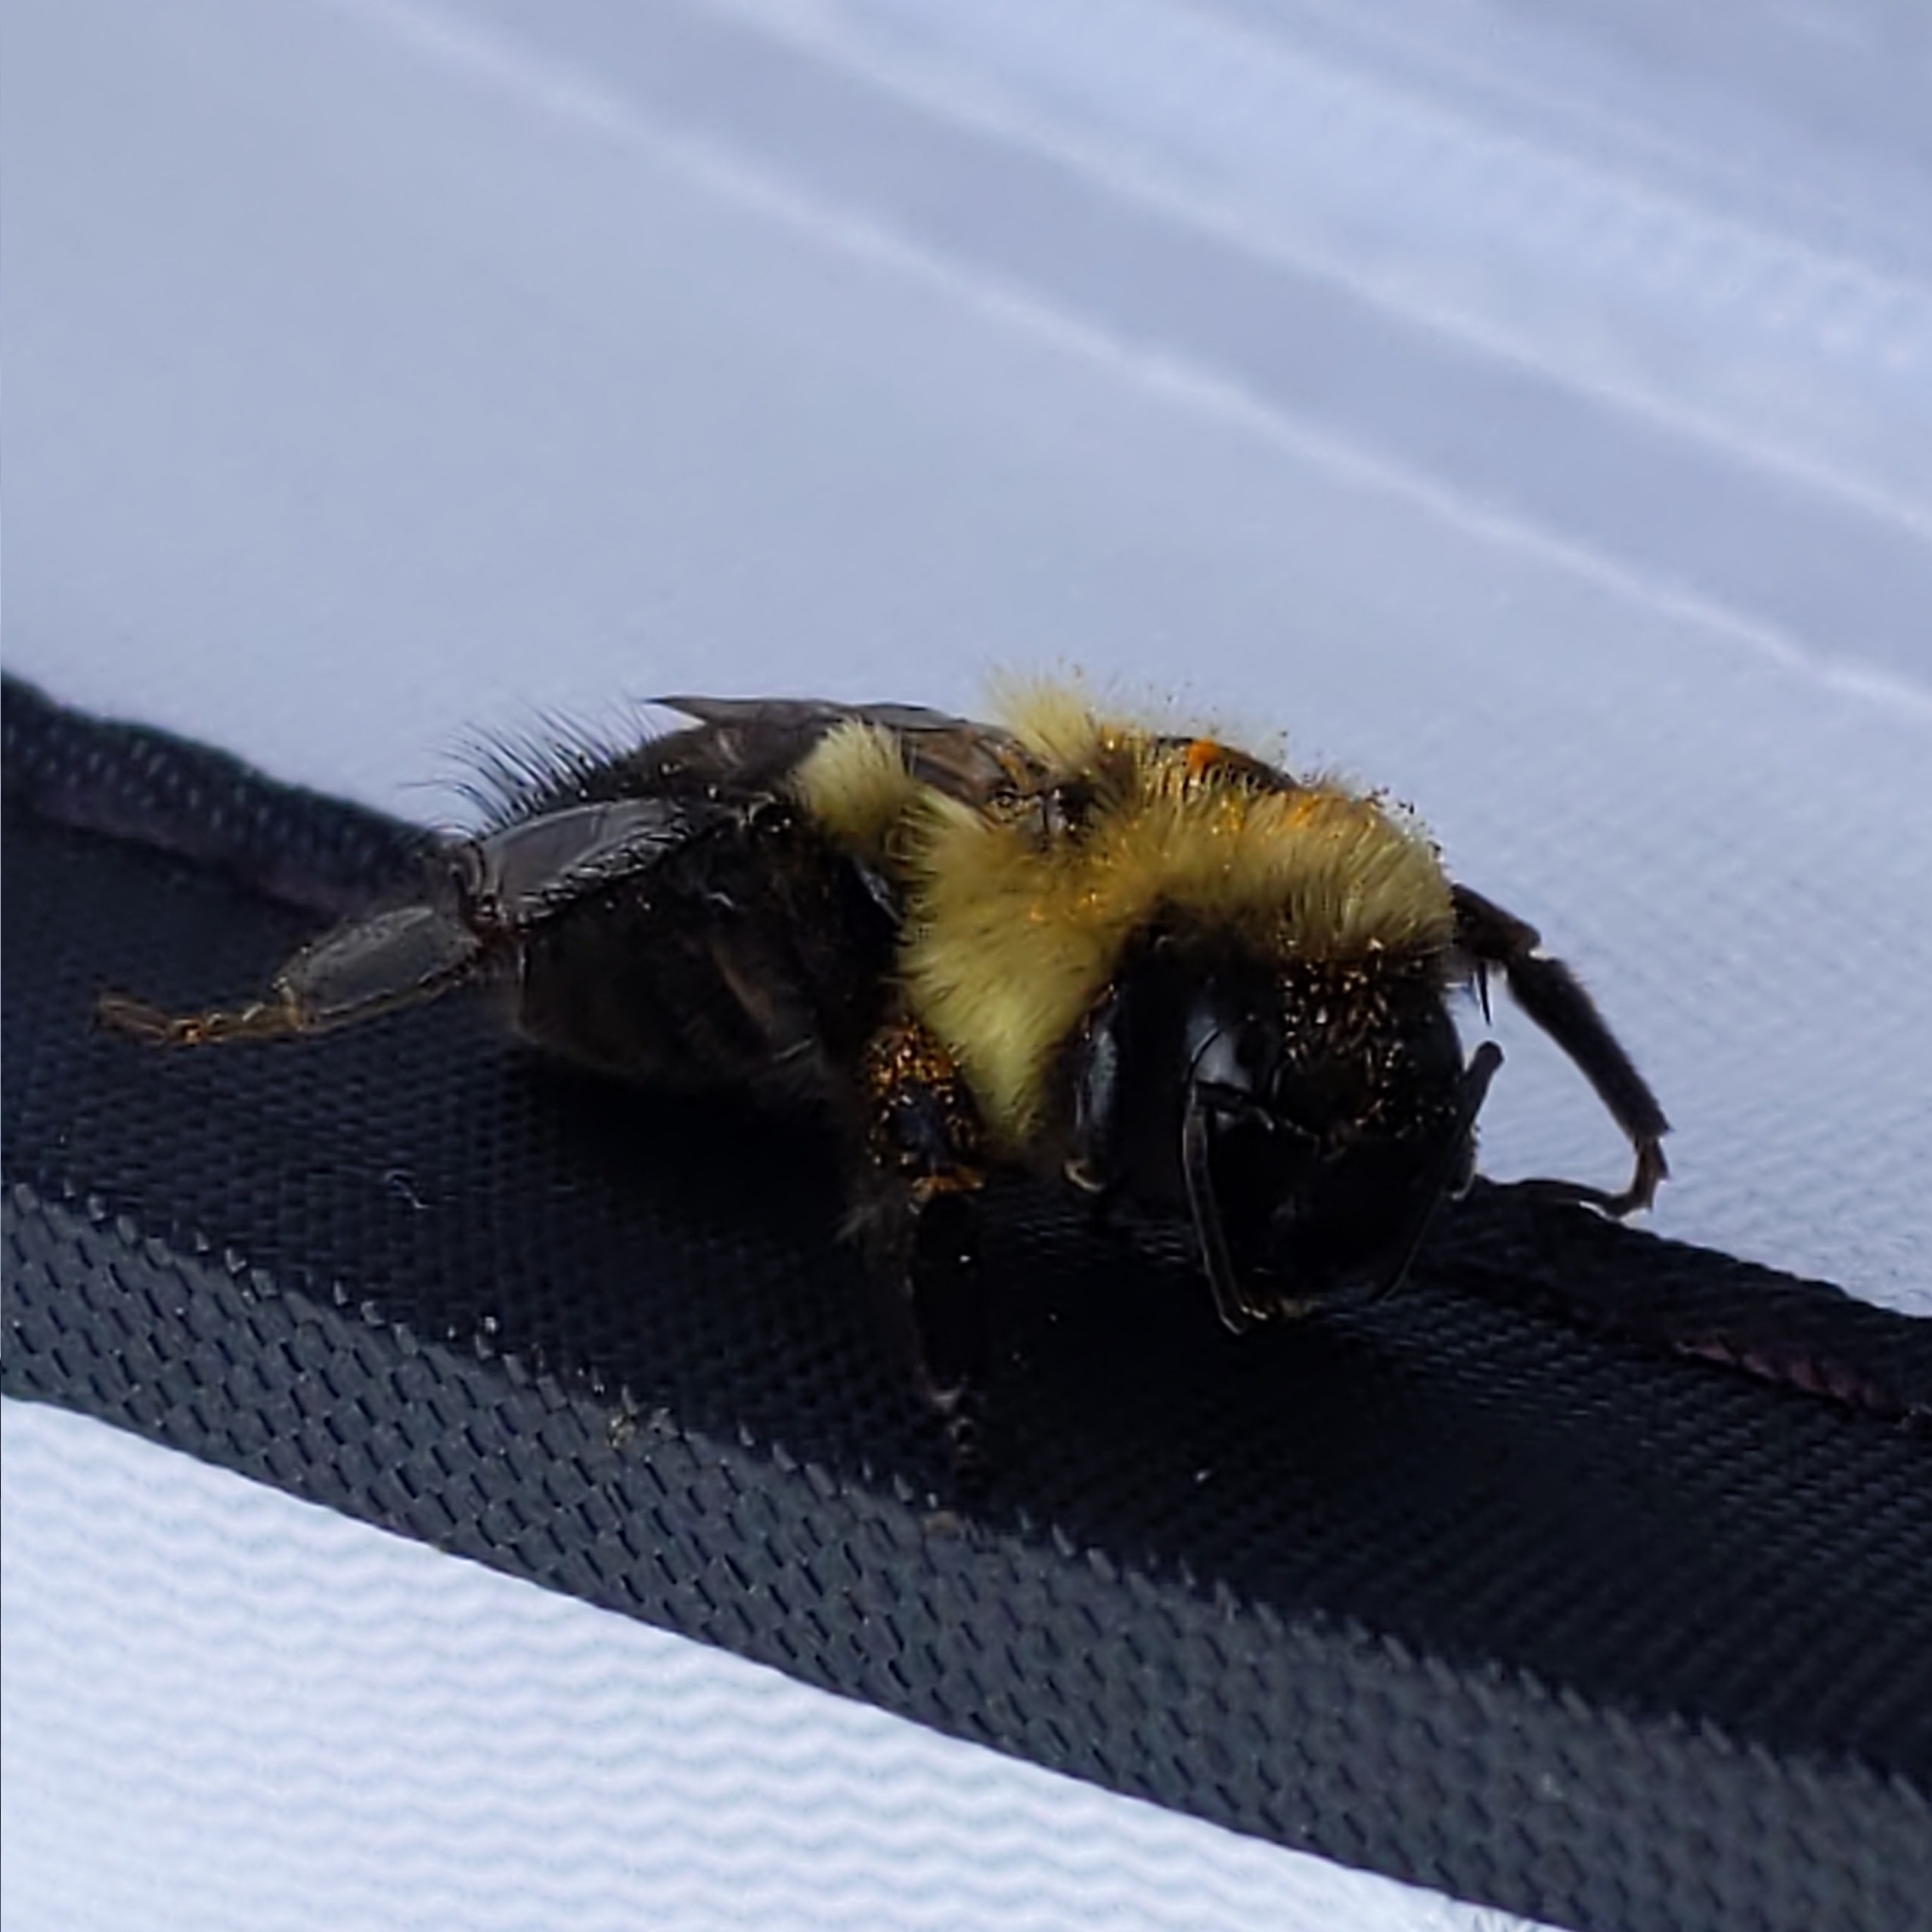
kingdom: Animalia
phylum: Arthropoda
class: Insecta
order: Hymenoptera
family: Apidae
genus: Bombus
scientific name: Bombus impatiens
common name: Common eastern bumble bee
